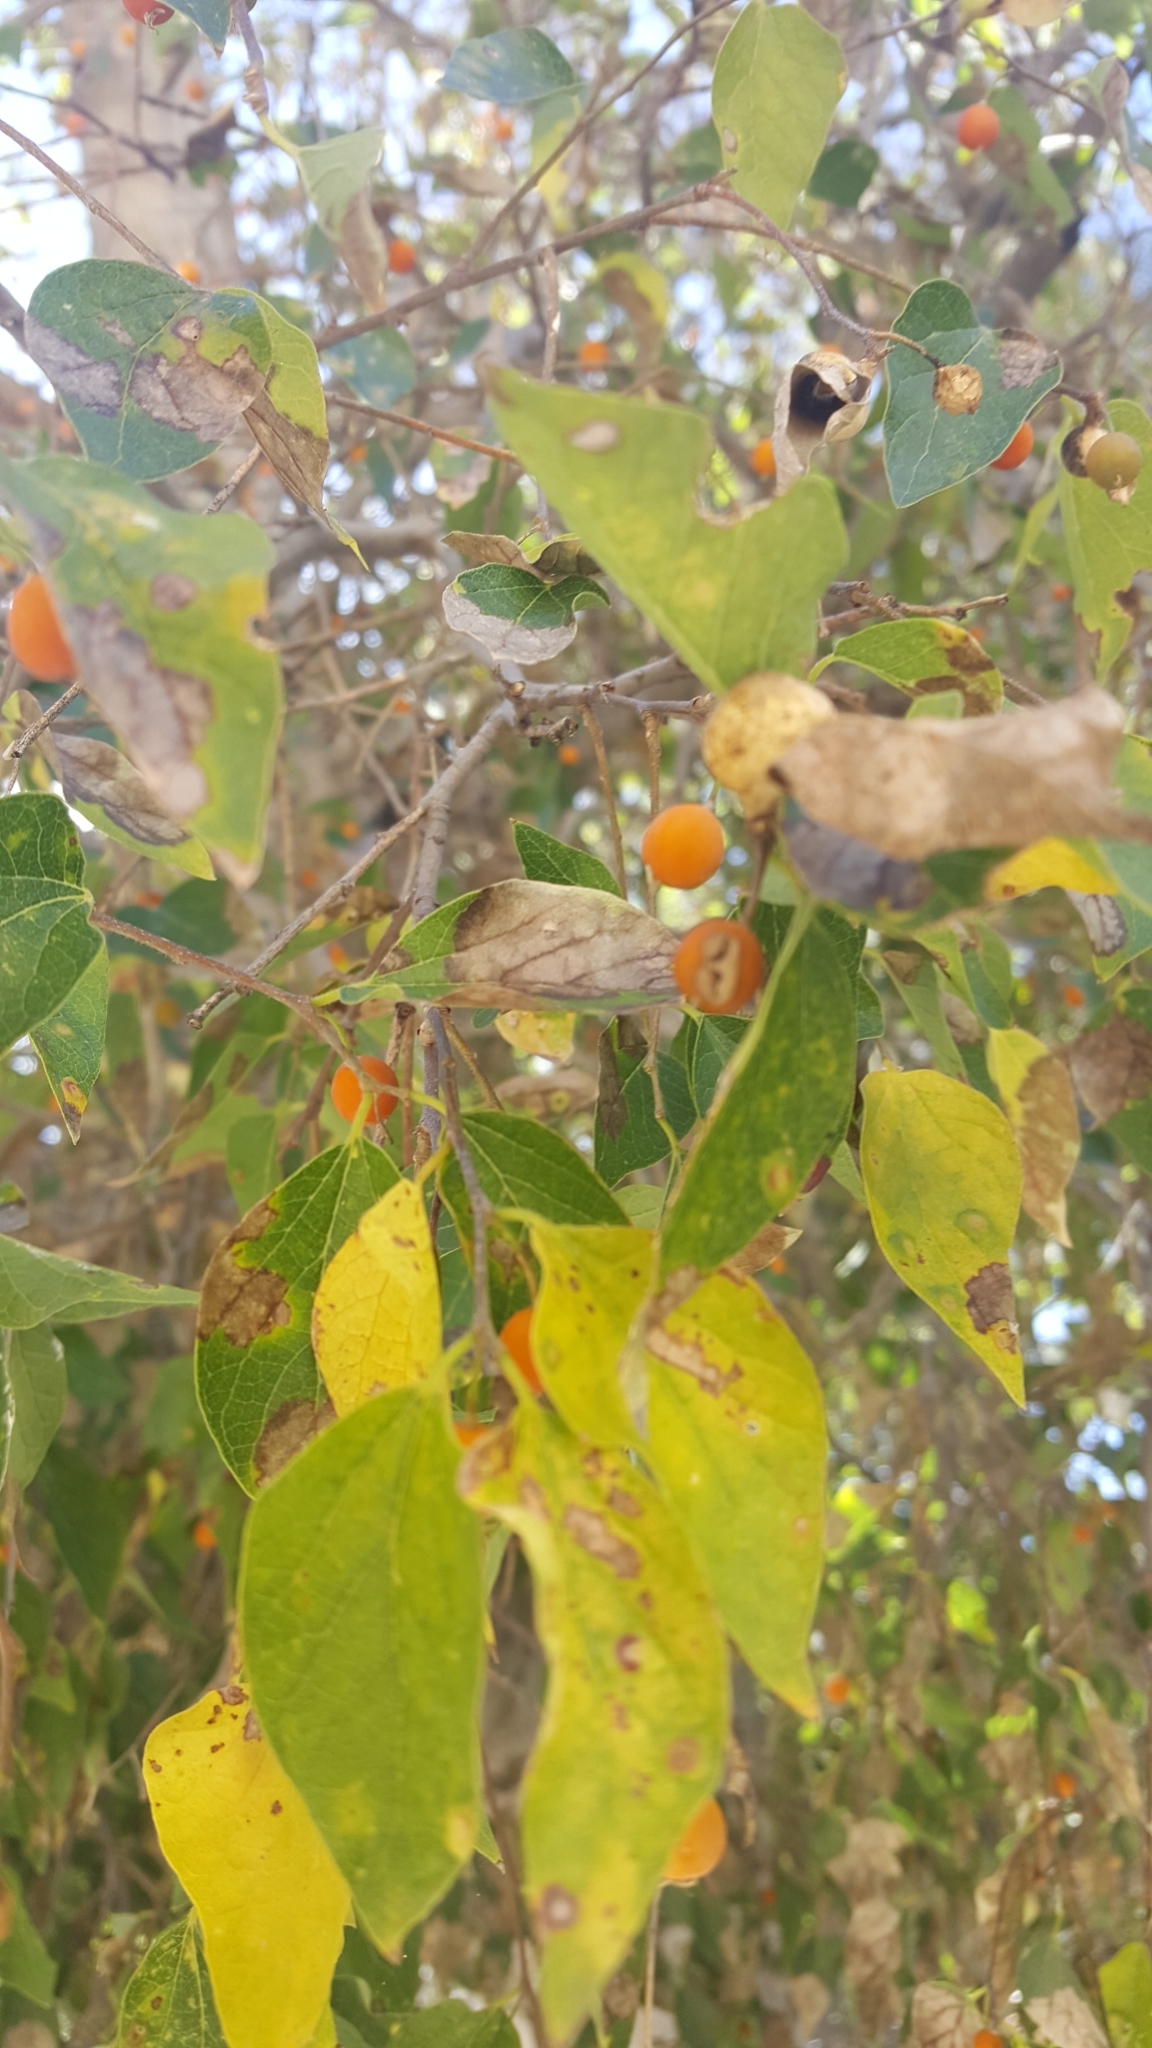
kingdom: Plantae
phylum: Tracheophyta
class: Magnoliopsida
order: Rosales
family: Cannabaceae
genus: Celtis
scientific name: Celtis reticulata
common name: Netleaf hackberry
